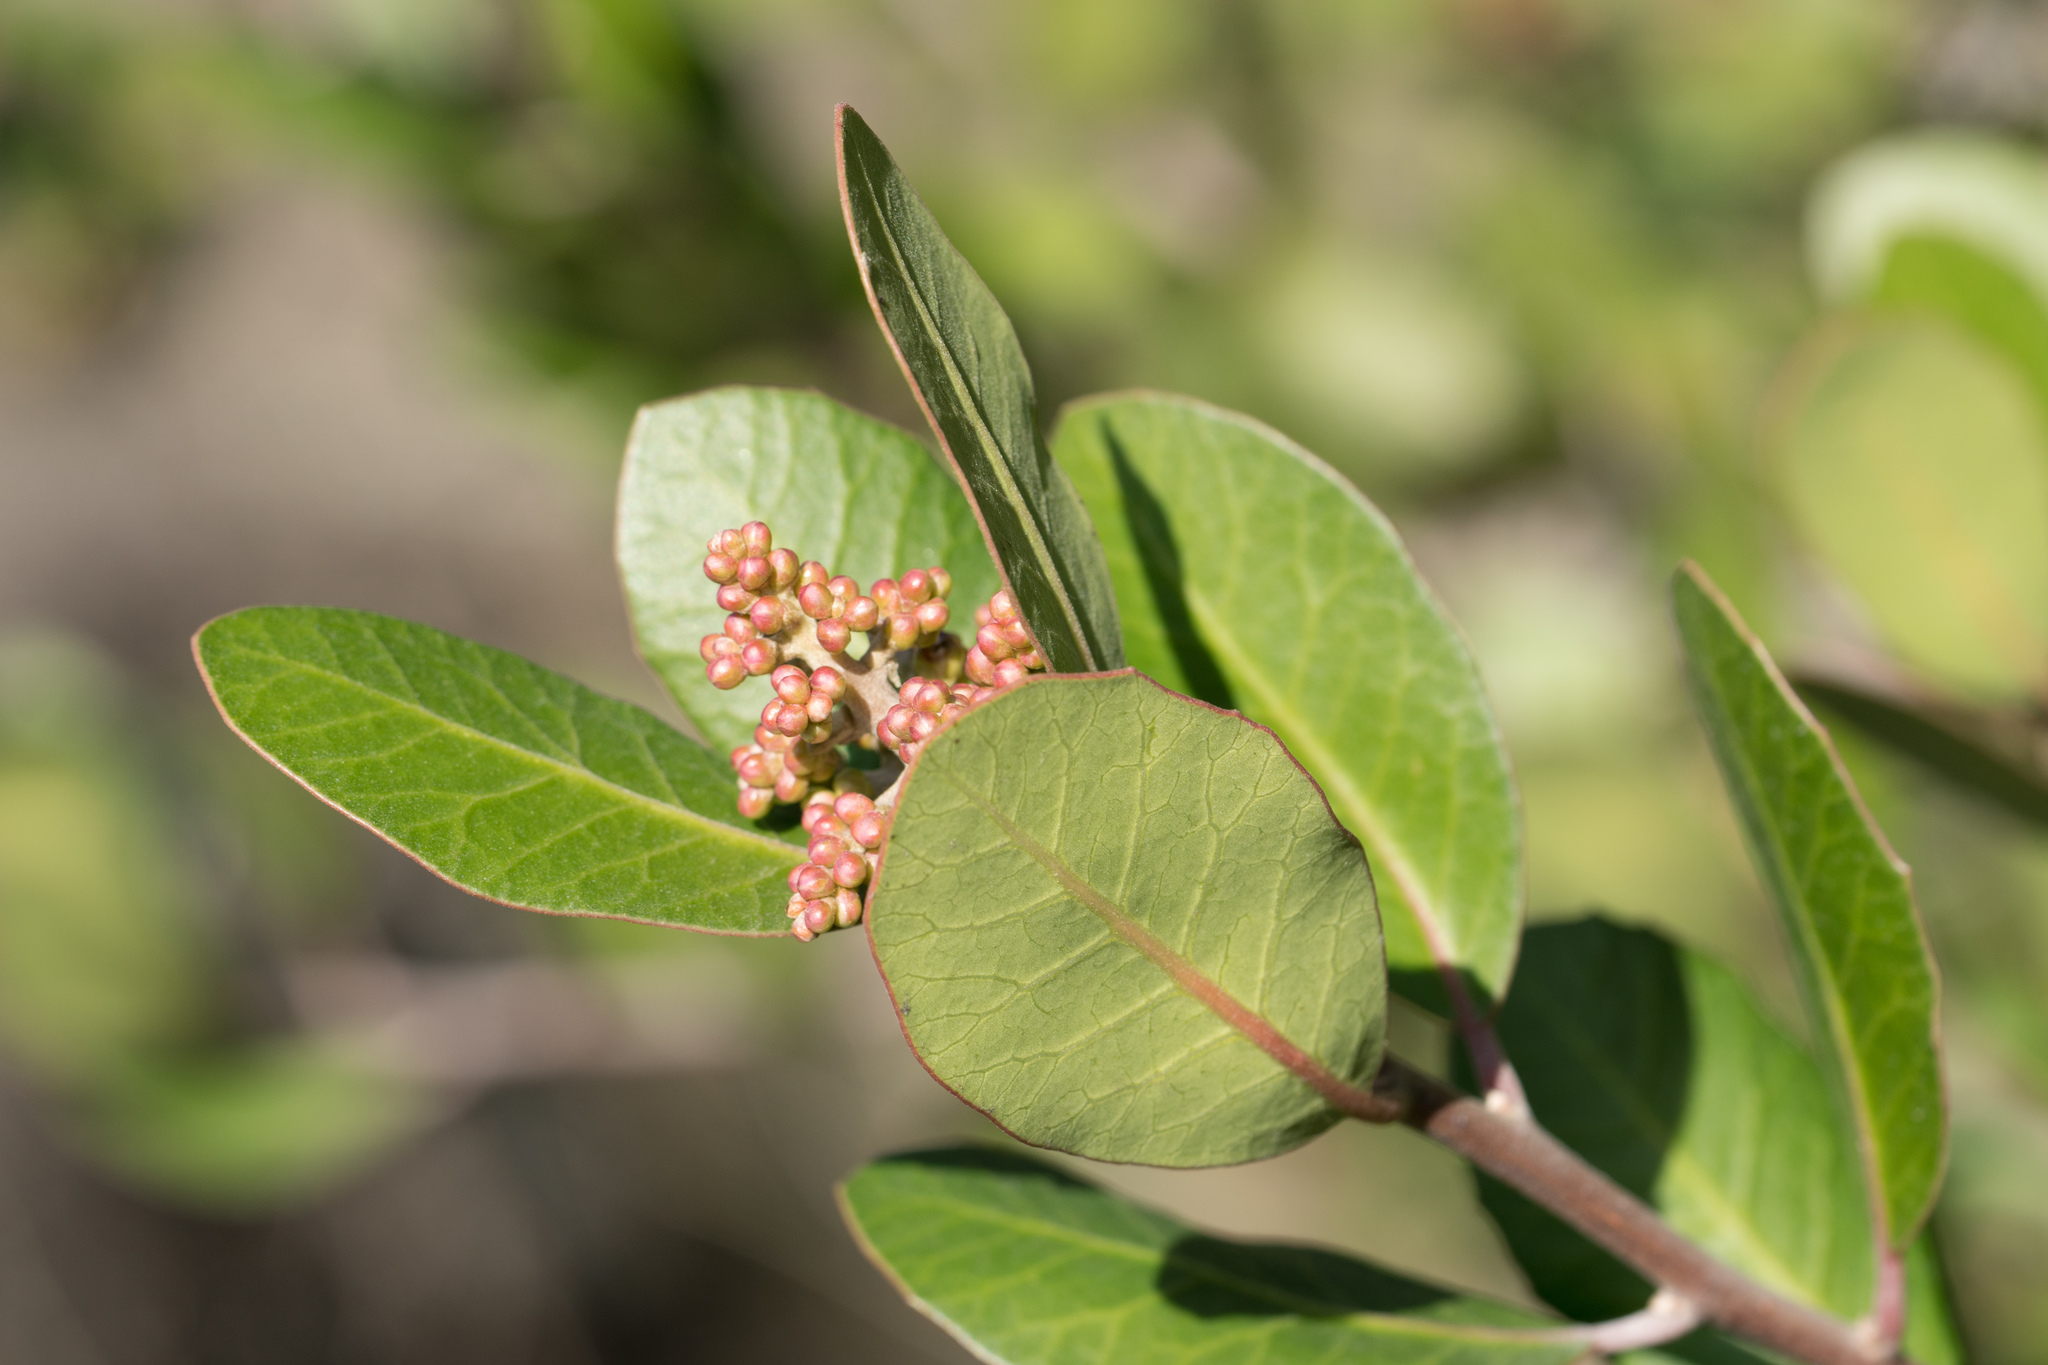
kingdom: Plantae
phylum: Tracheophyta
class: Magnoliopsida
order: Sapindales
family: Anacardiaceae
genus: Rhus
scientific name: Rhus integrifolia
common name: Lemonade sumac
